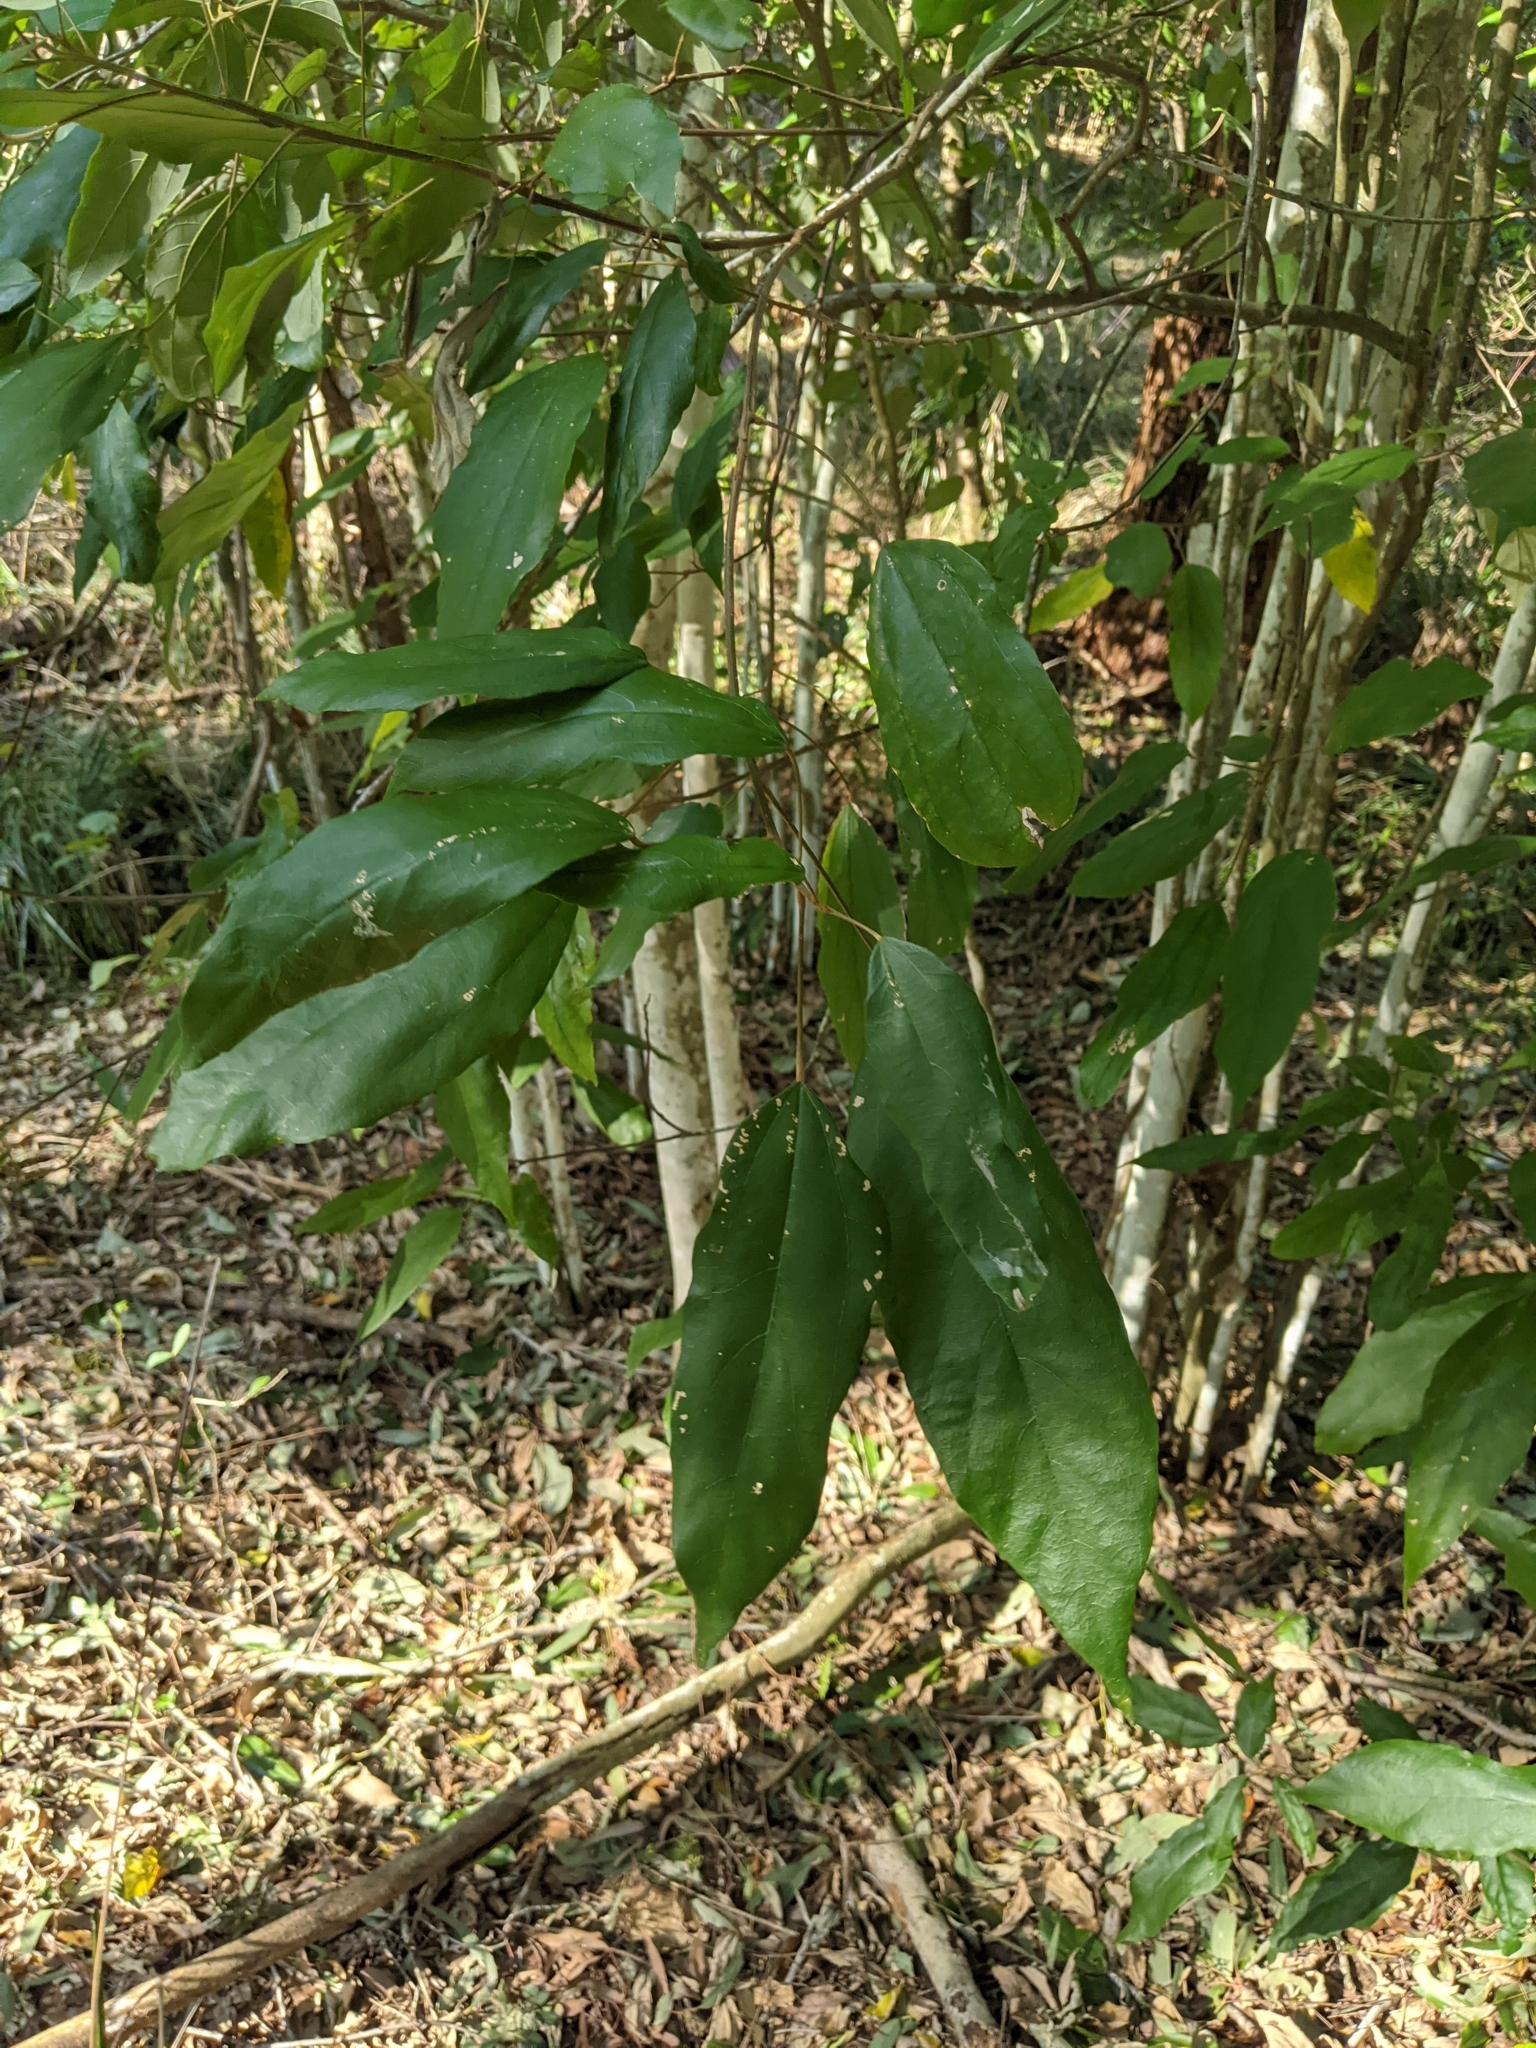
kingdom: Plantae
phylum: Tracheophyta
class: Magnoliopsida
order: Malpighiales
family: Euphorbiaceae
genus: Mallotus
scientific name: Mallotus philippensis
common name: Kamala tree
